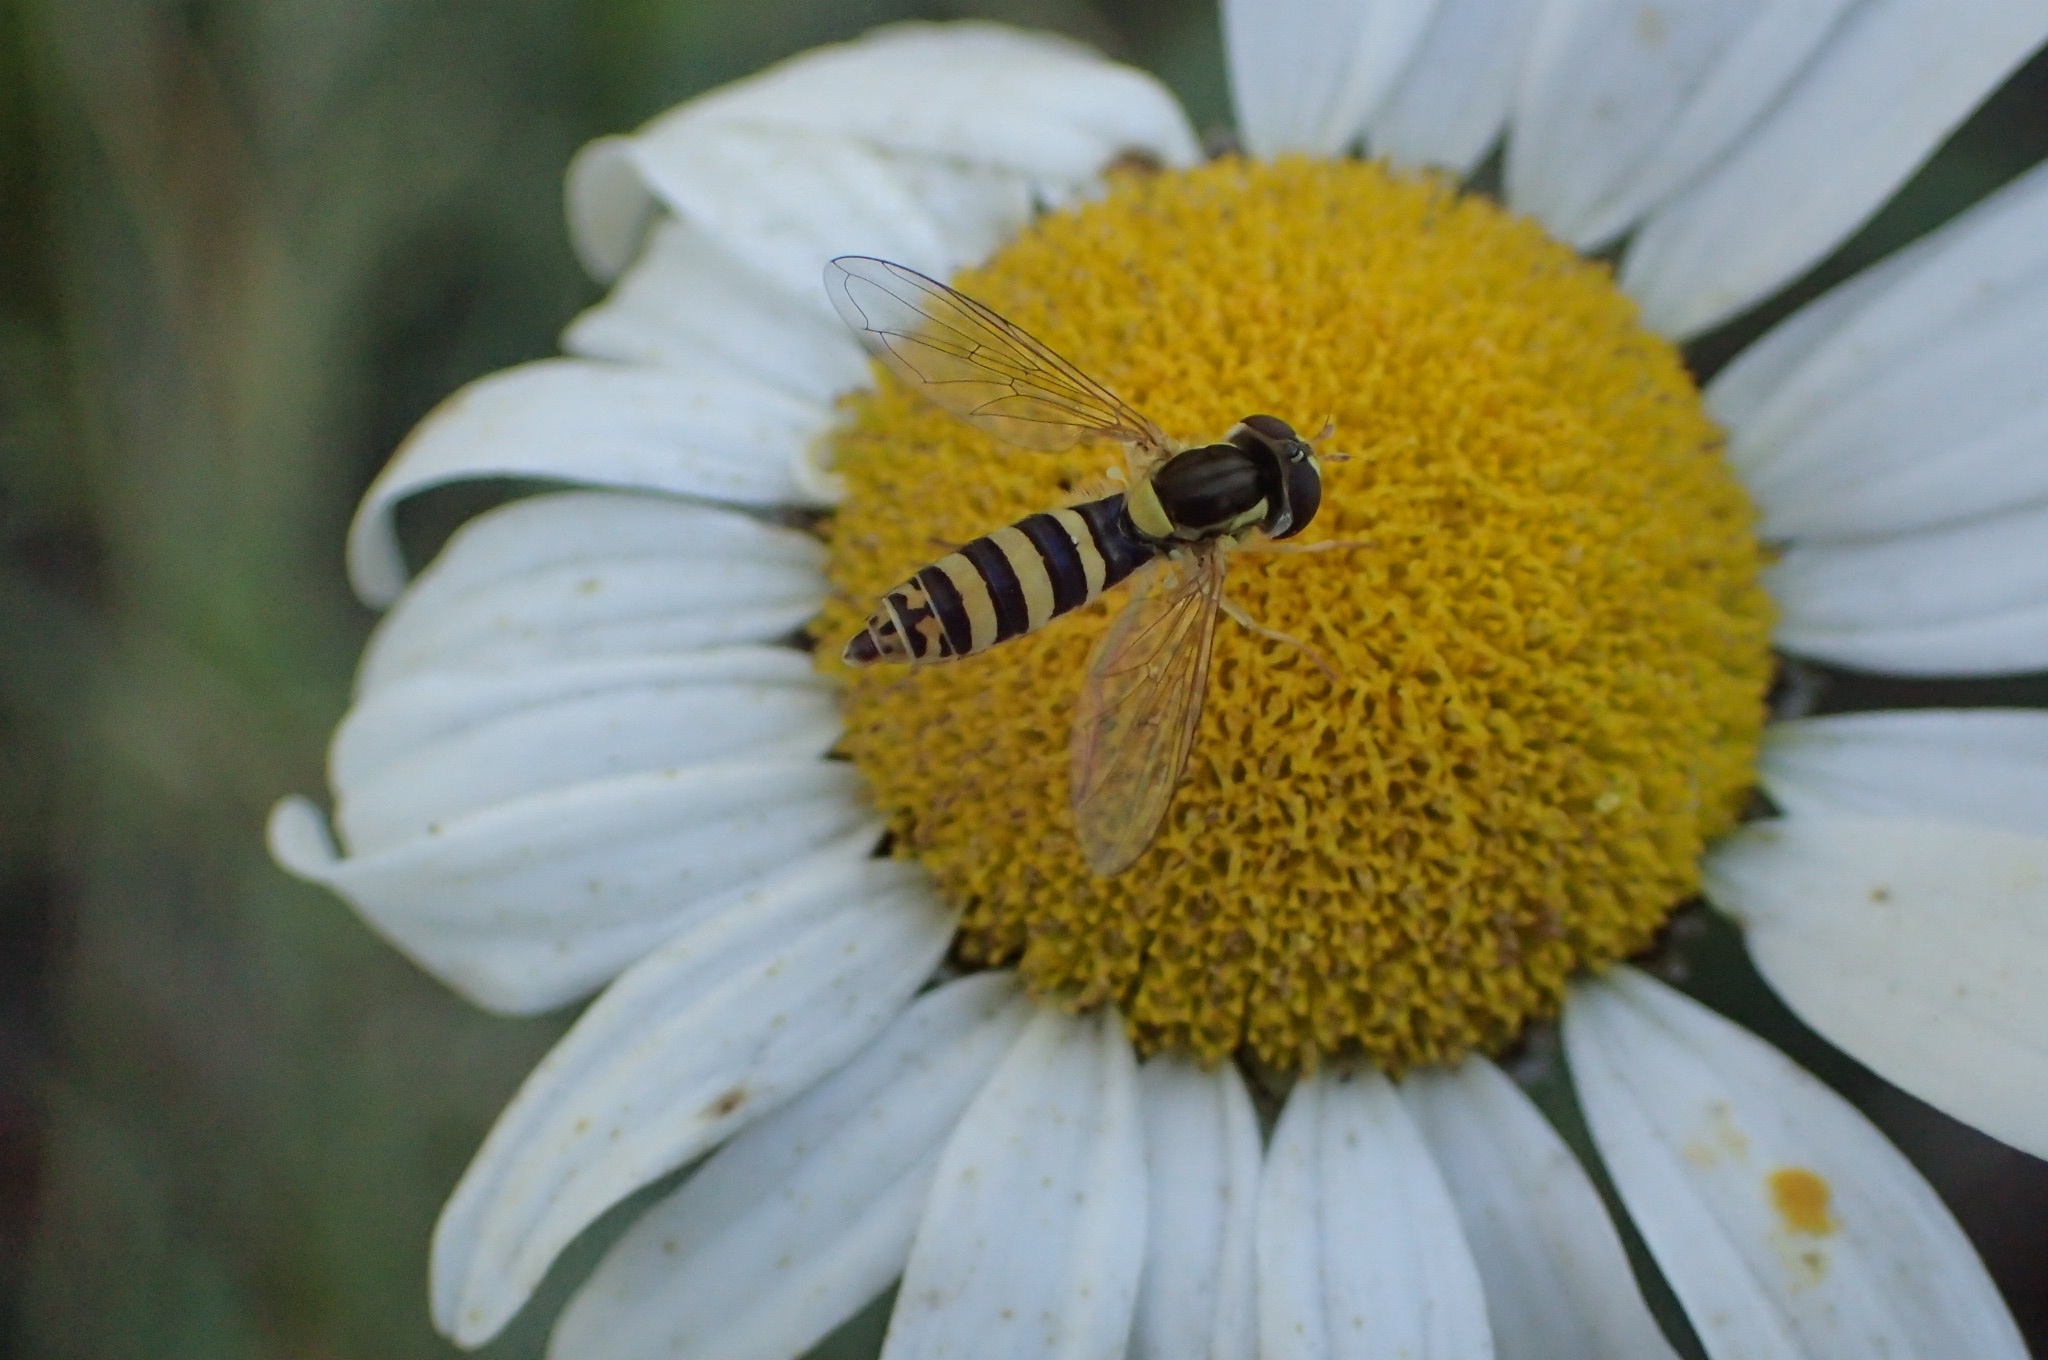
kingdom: Animalia
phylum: Arthropoda
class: Insecta
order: Diptera
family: Syrphidae
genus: Sphaerophoria
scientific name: Sphaerophoria
